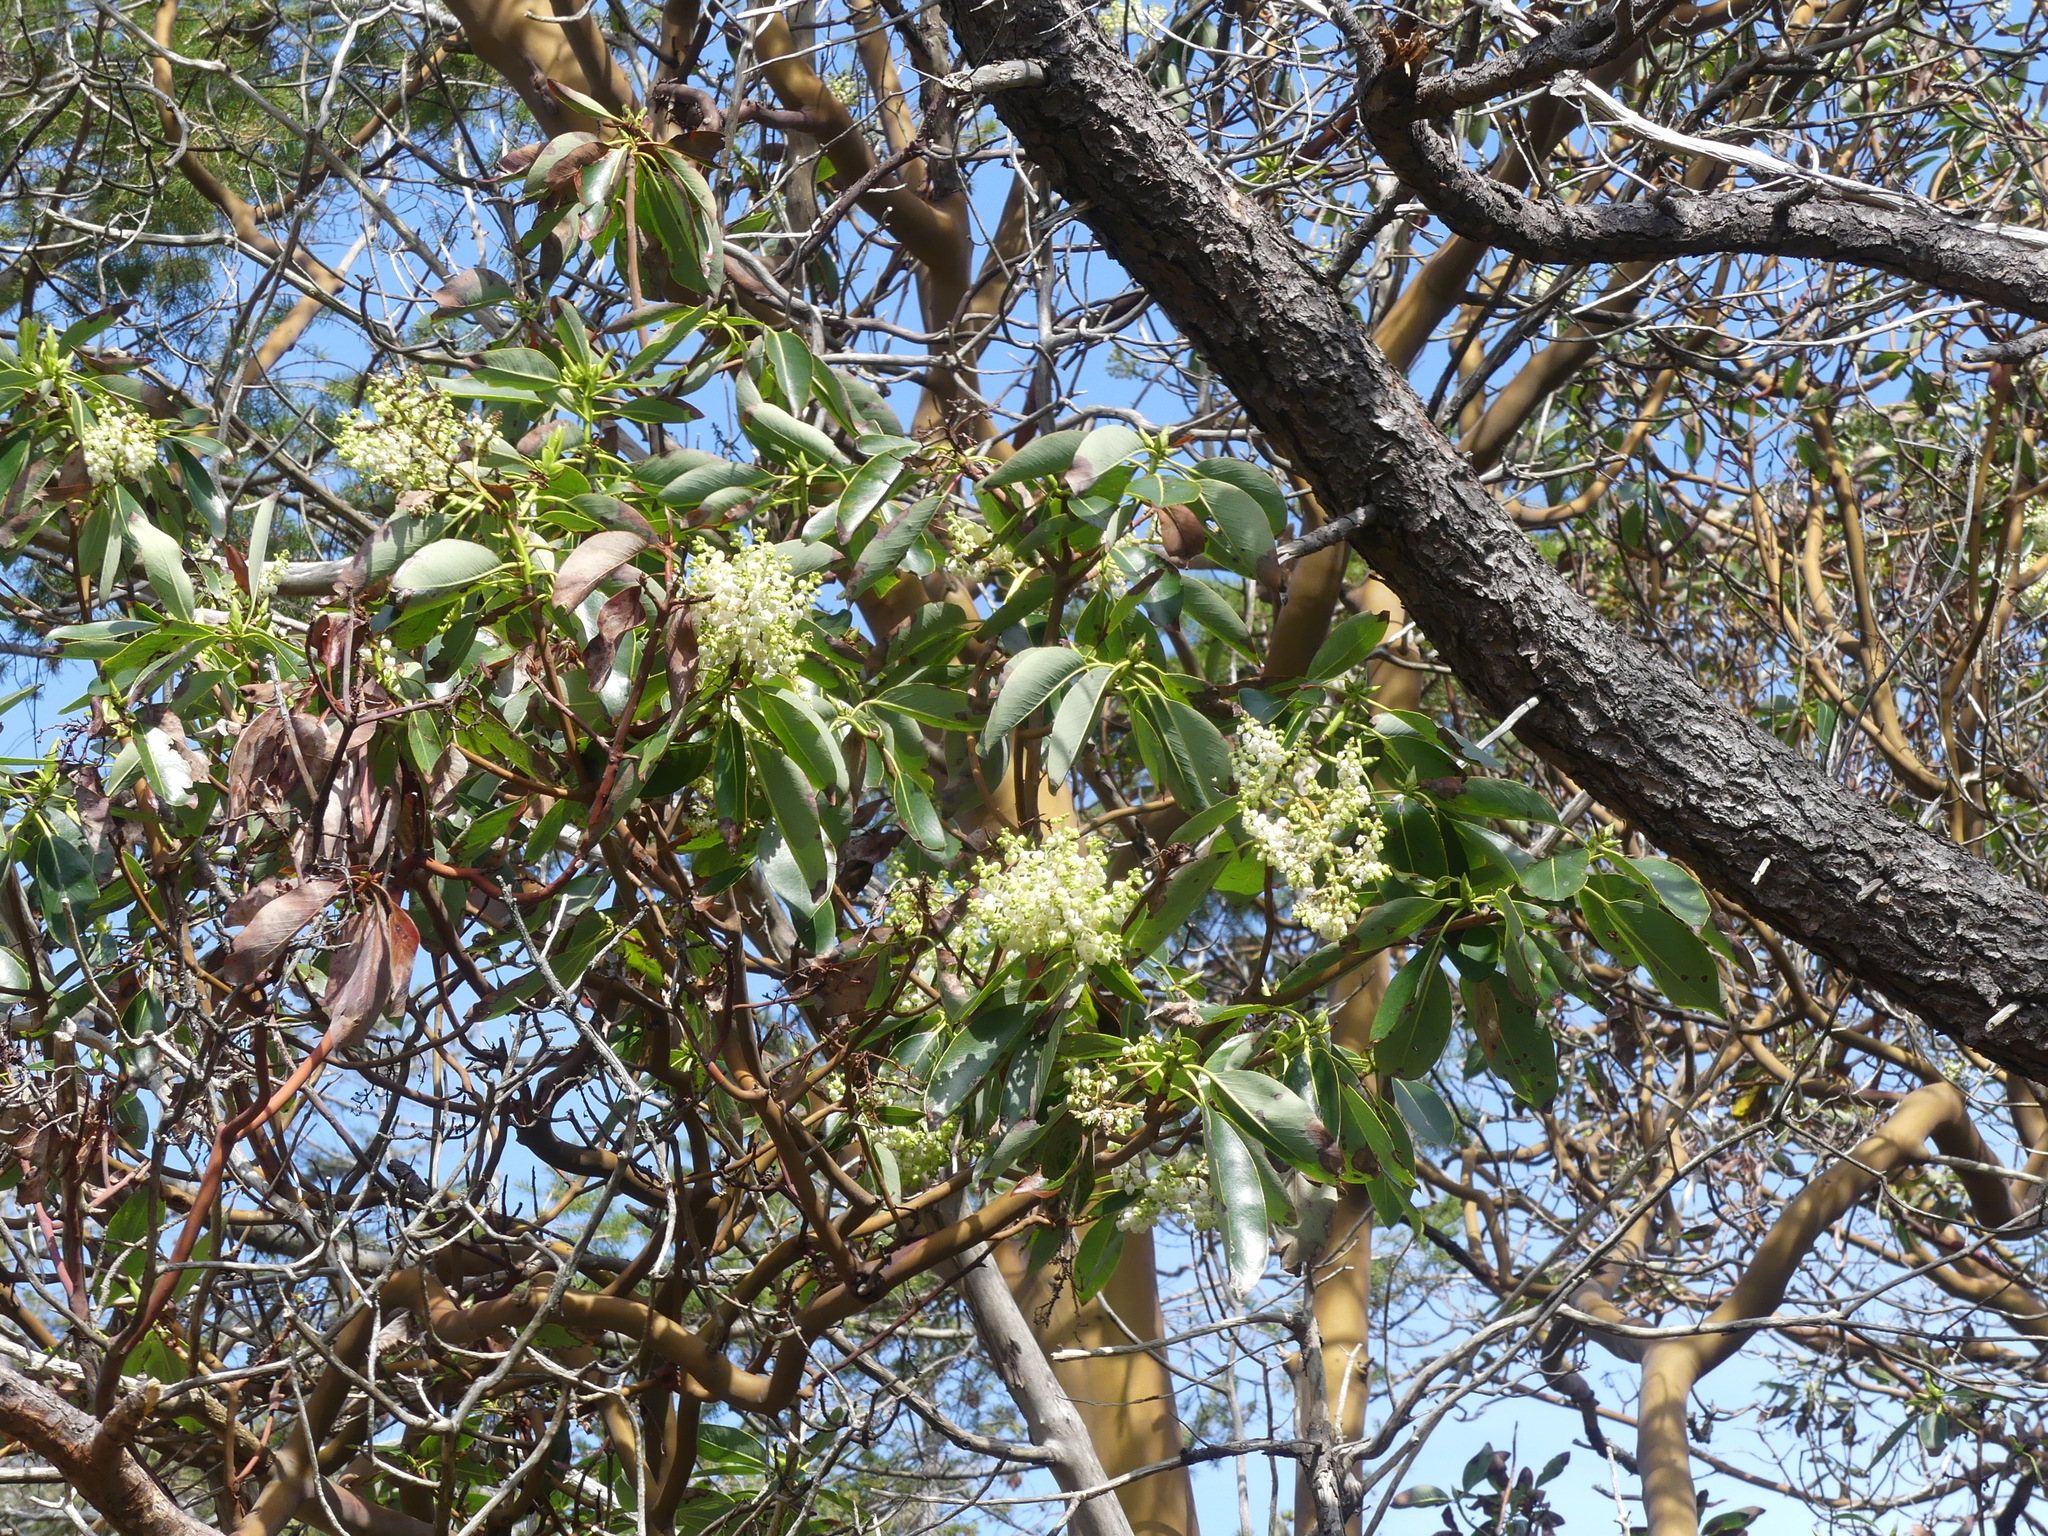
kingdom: Plantae
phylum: Tracheophyta
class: Magnoliopsida
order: Ericales
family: Ericaceae
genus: Arbutus
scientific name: Arbutus menziesii
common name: Pacific madrone
